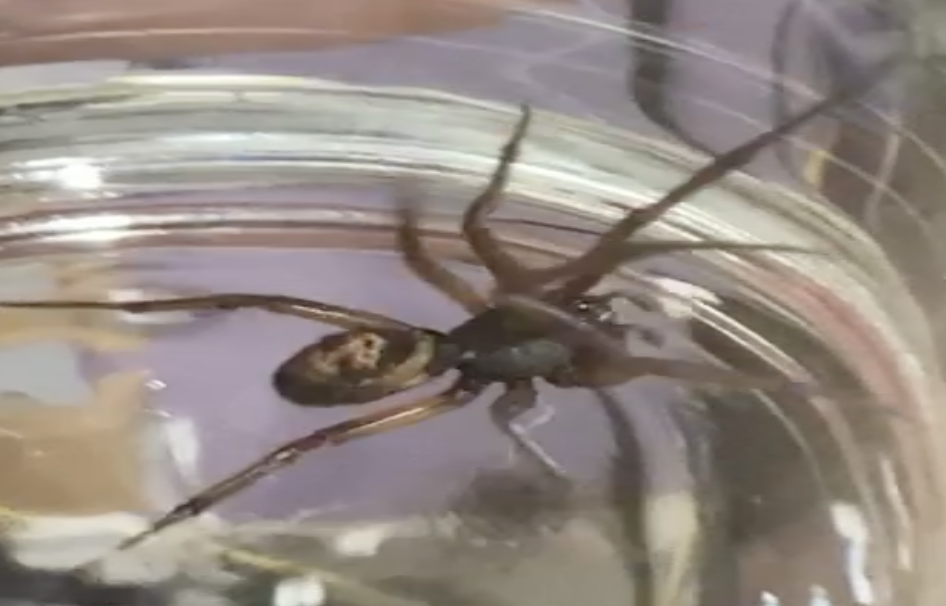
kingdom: Animalia
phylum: Arthropoda
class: Arachnida
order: Araneae
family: Theridiidae
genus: Steatoda
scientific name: Steatoda nobilis
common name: Cobweb weaver
